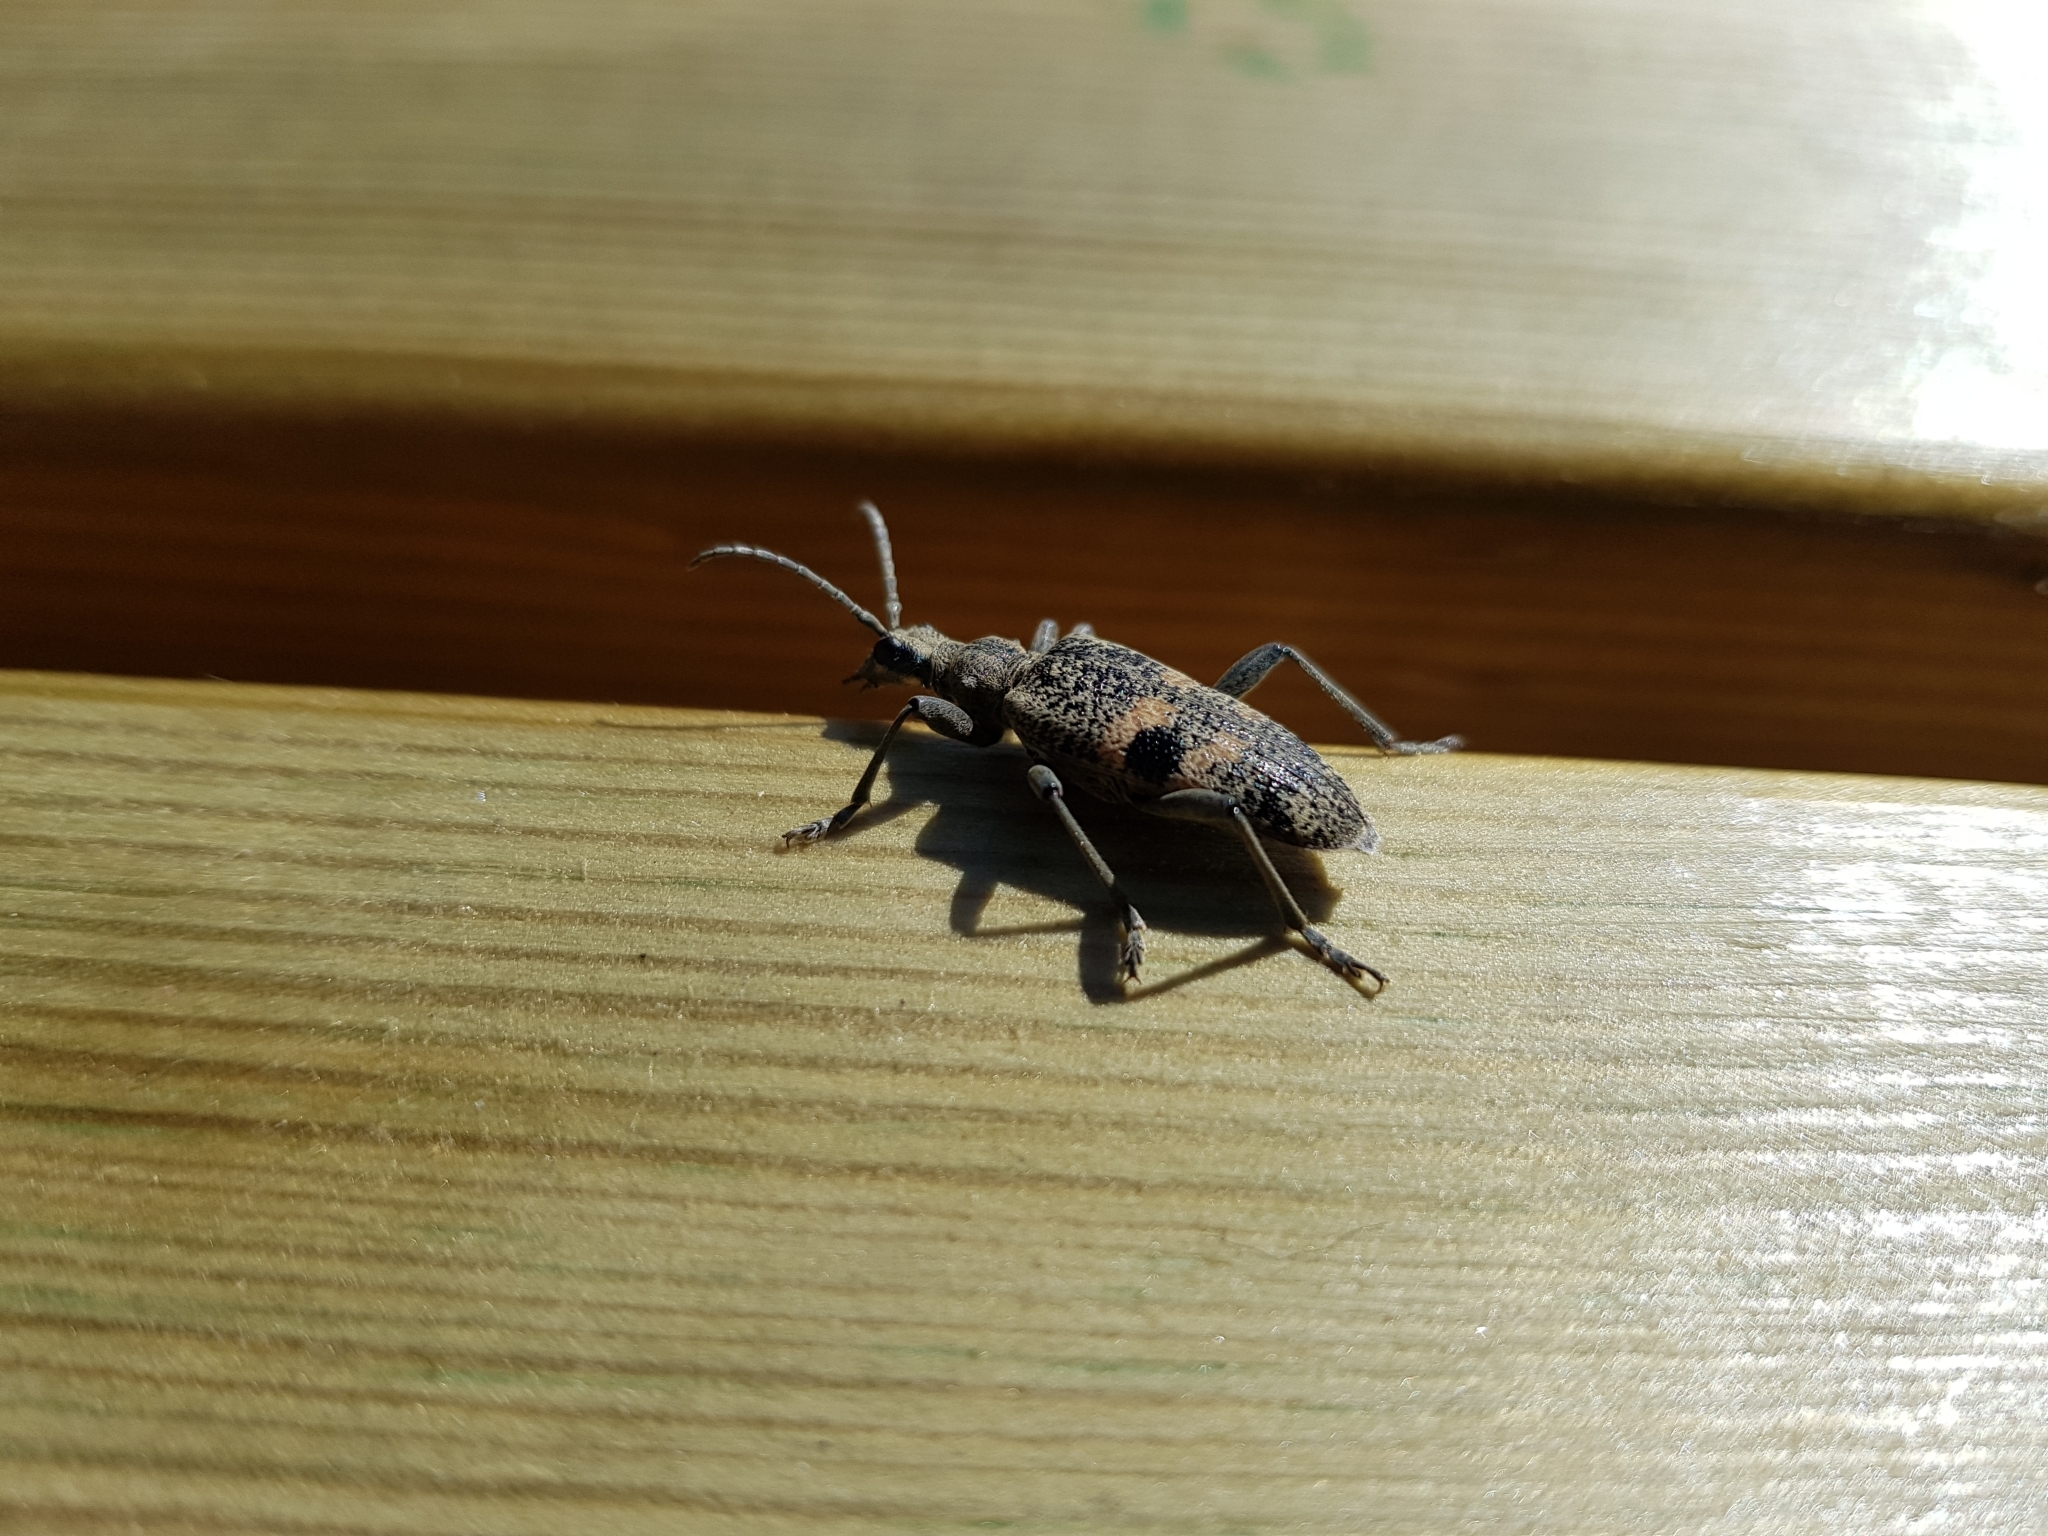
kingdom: Animalia
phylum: Arthropoda
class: Insecta
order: Coleoptera
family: Cerambycidae
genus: Rhagium
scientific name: Rhagium mordax
